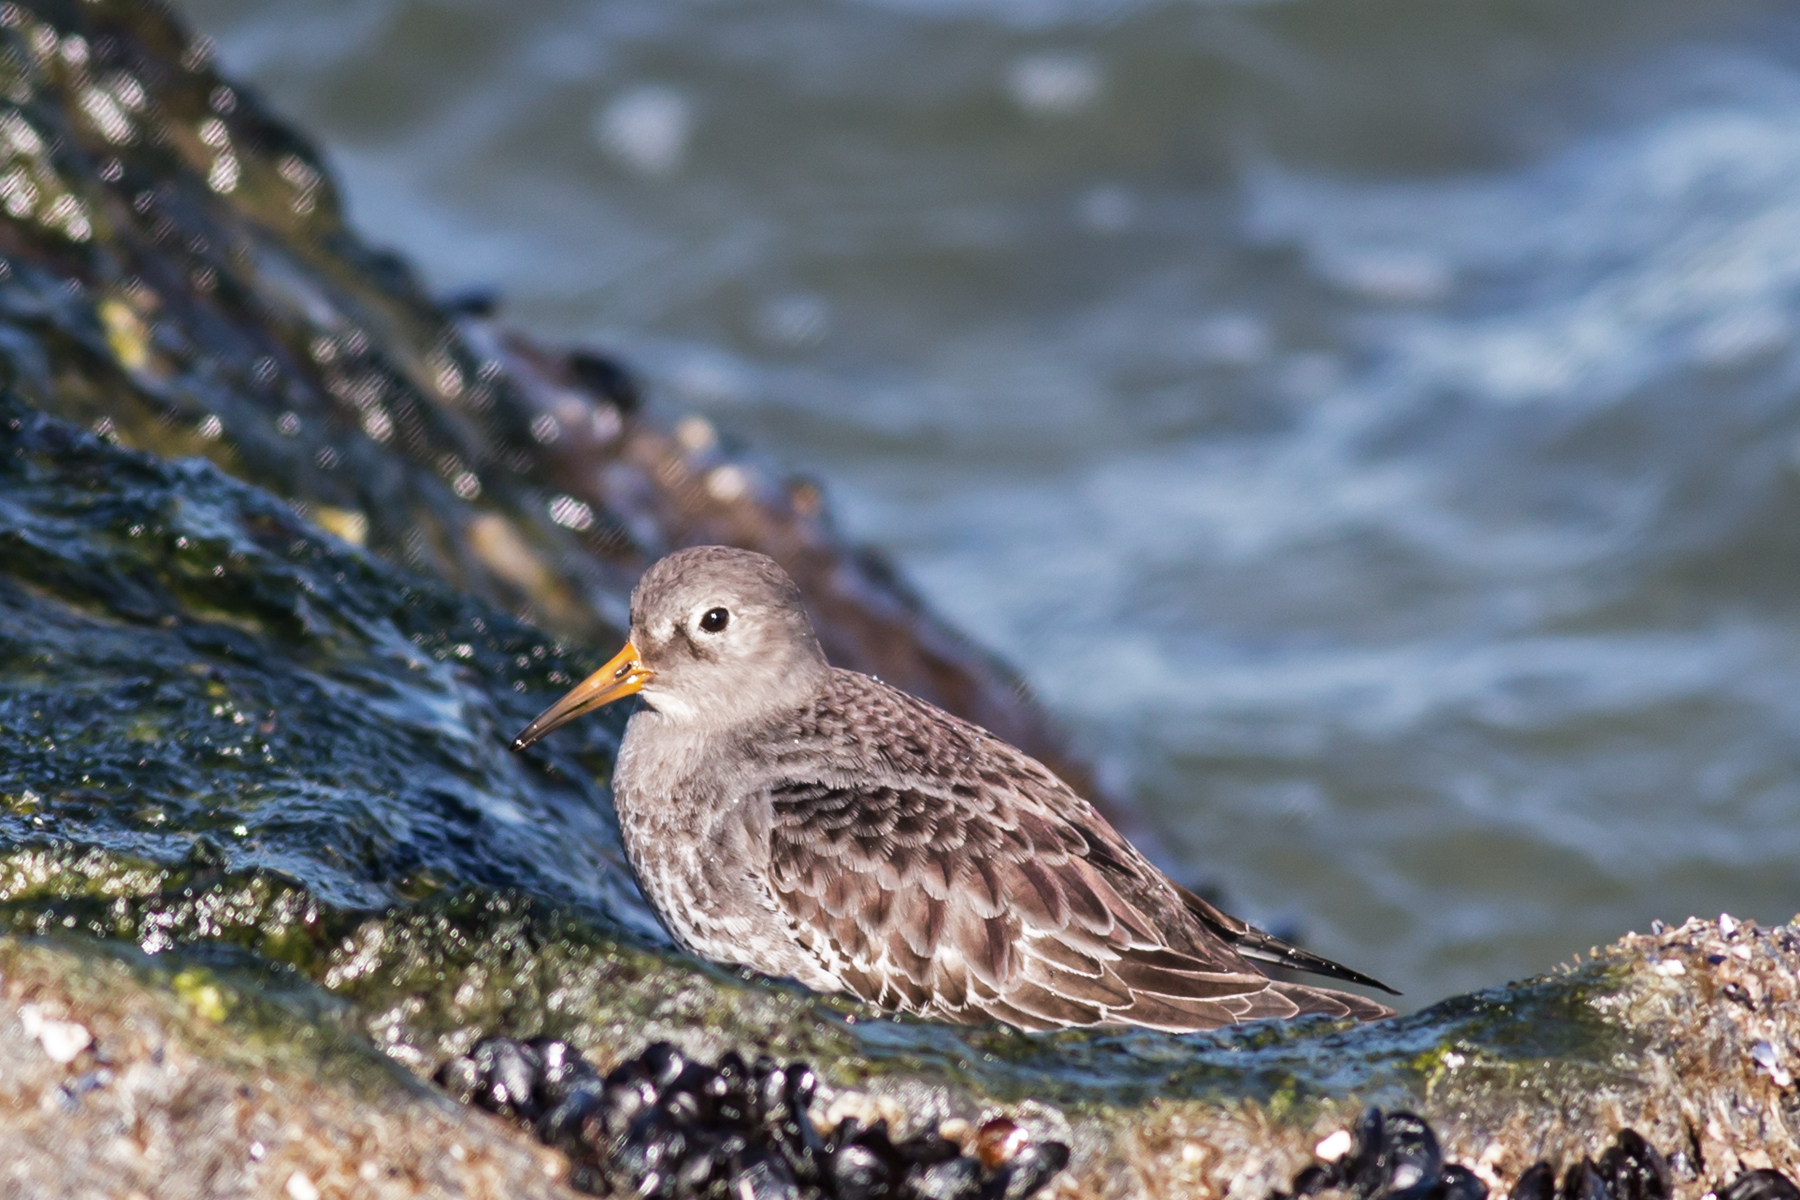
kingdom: Animalia
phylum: Chordata
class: Aves
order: Charadriiformes
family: Scolopacidae
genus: Calidris
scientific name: Calidris maritima
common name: Purple sandpiper
